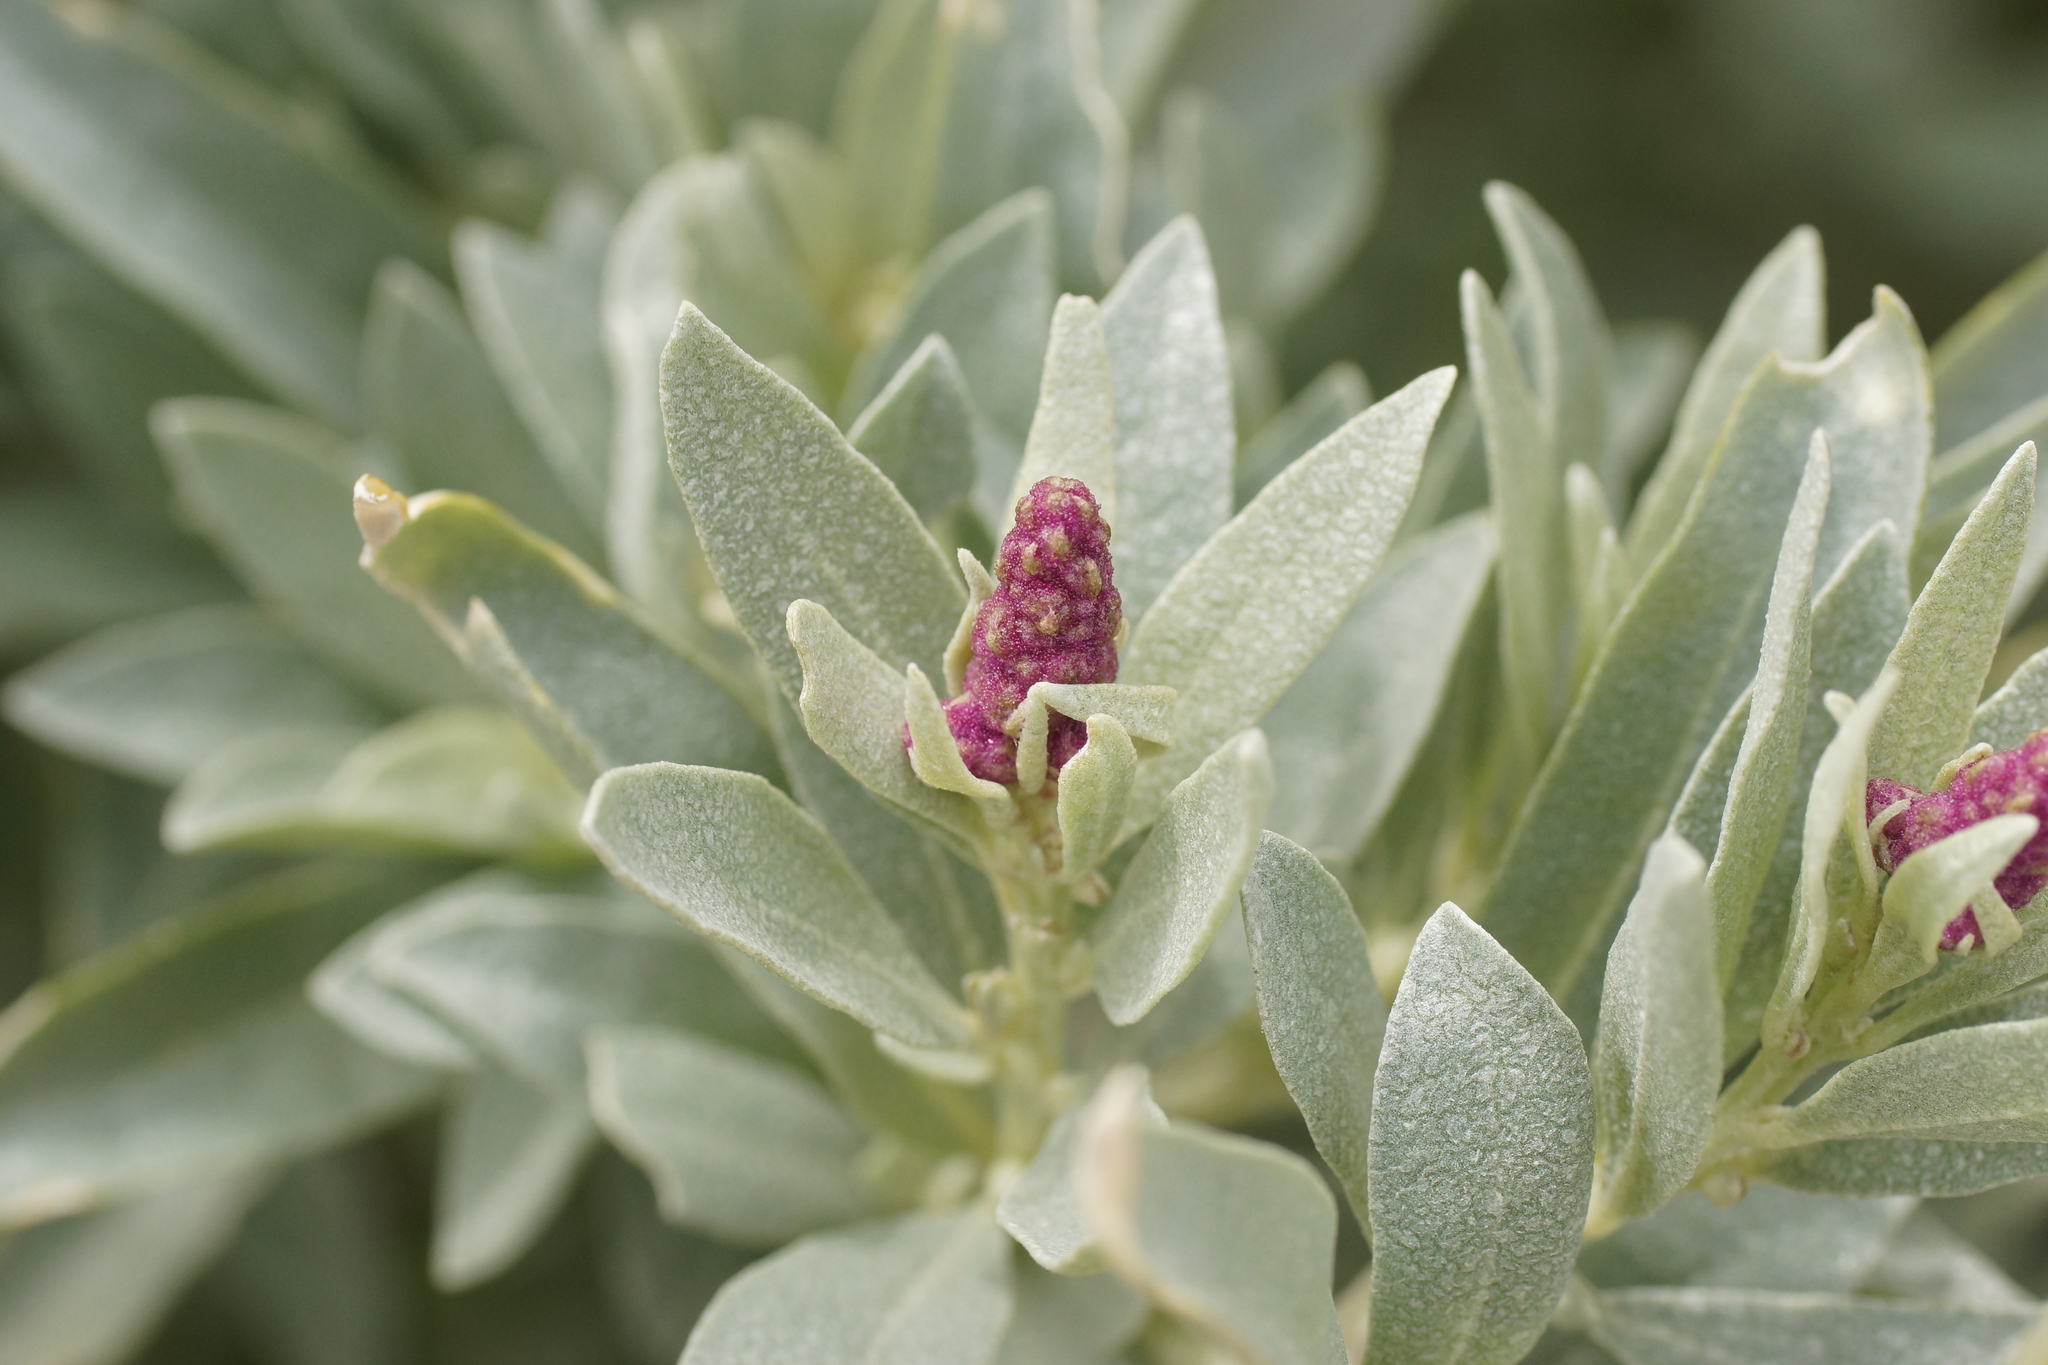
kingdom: Plantae
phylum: Tracheophyta
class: Magnoliopsida
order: Caryophyllales
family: Amaranthaceae
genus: Atriplex
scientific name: Atriplex cinerea
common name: Grey saltbush
